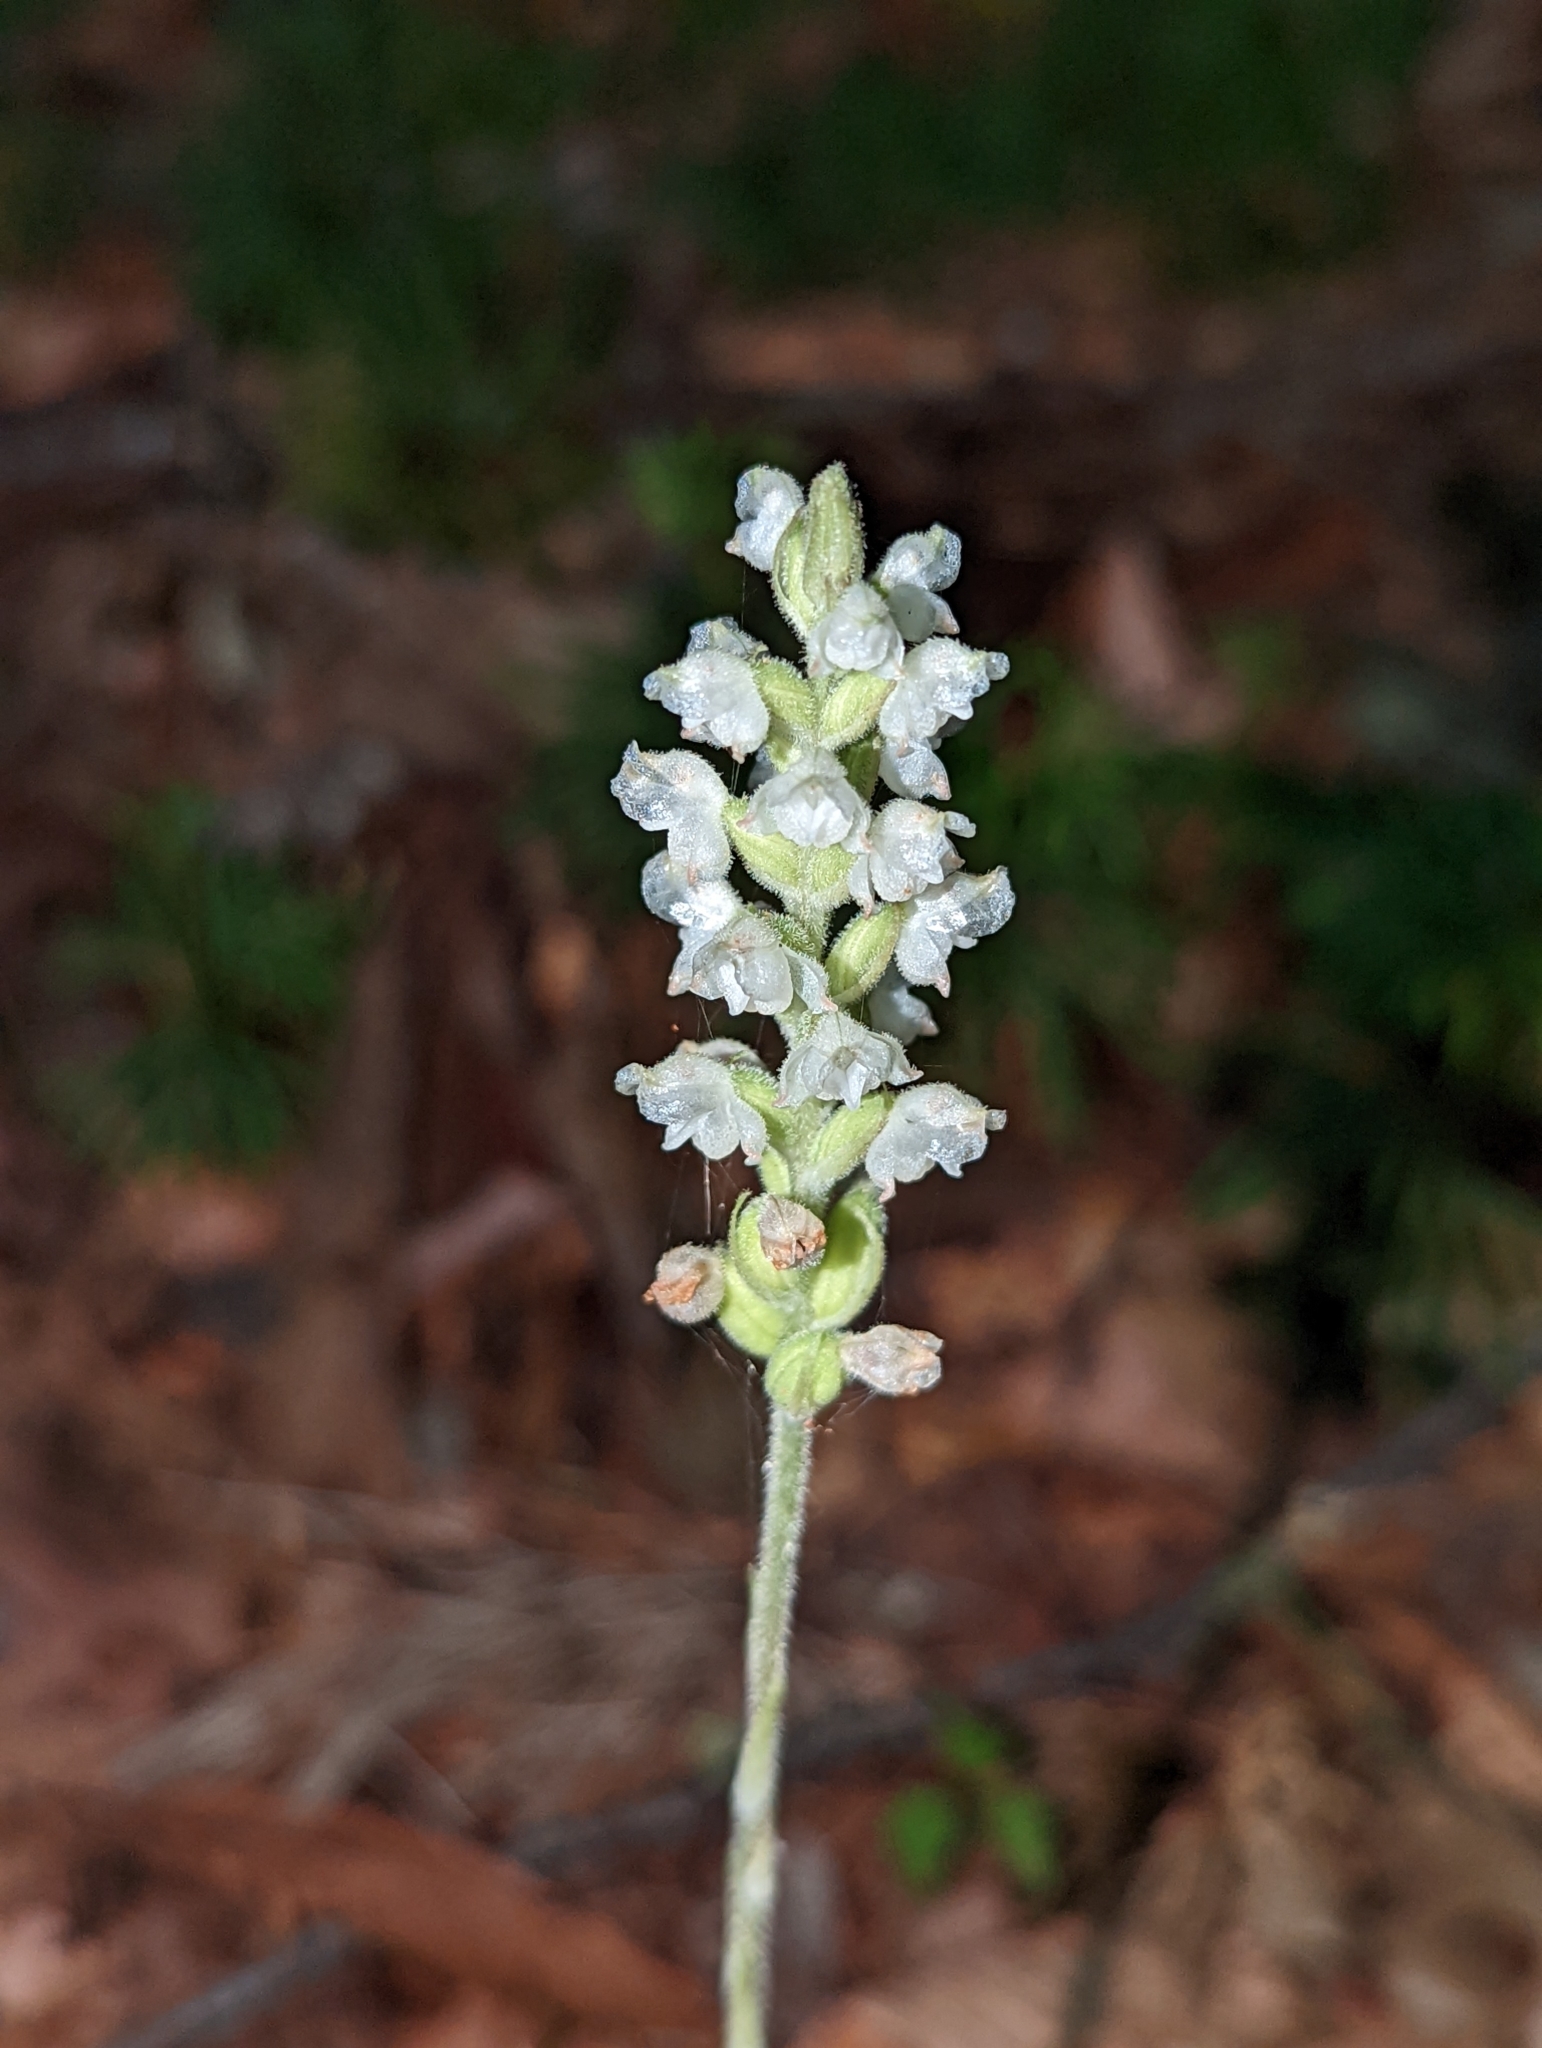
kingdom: Plantae
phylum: Tracheophyta
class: Liliopsida
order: Asparagales
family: Orchidaceae
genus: Goodyera
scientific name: Goodyera pubescens
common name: Downy rattlesnake-plantain
